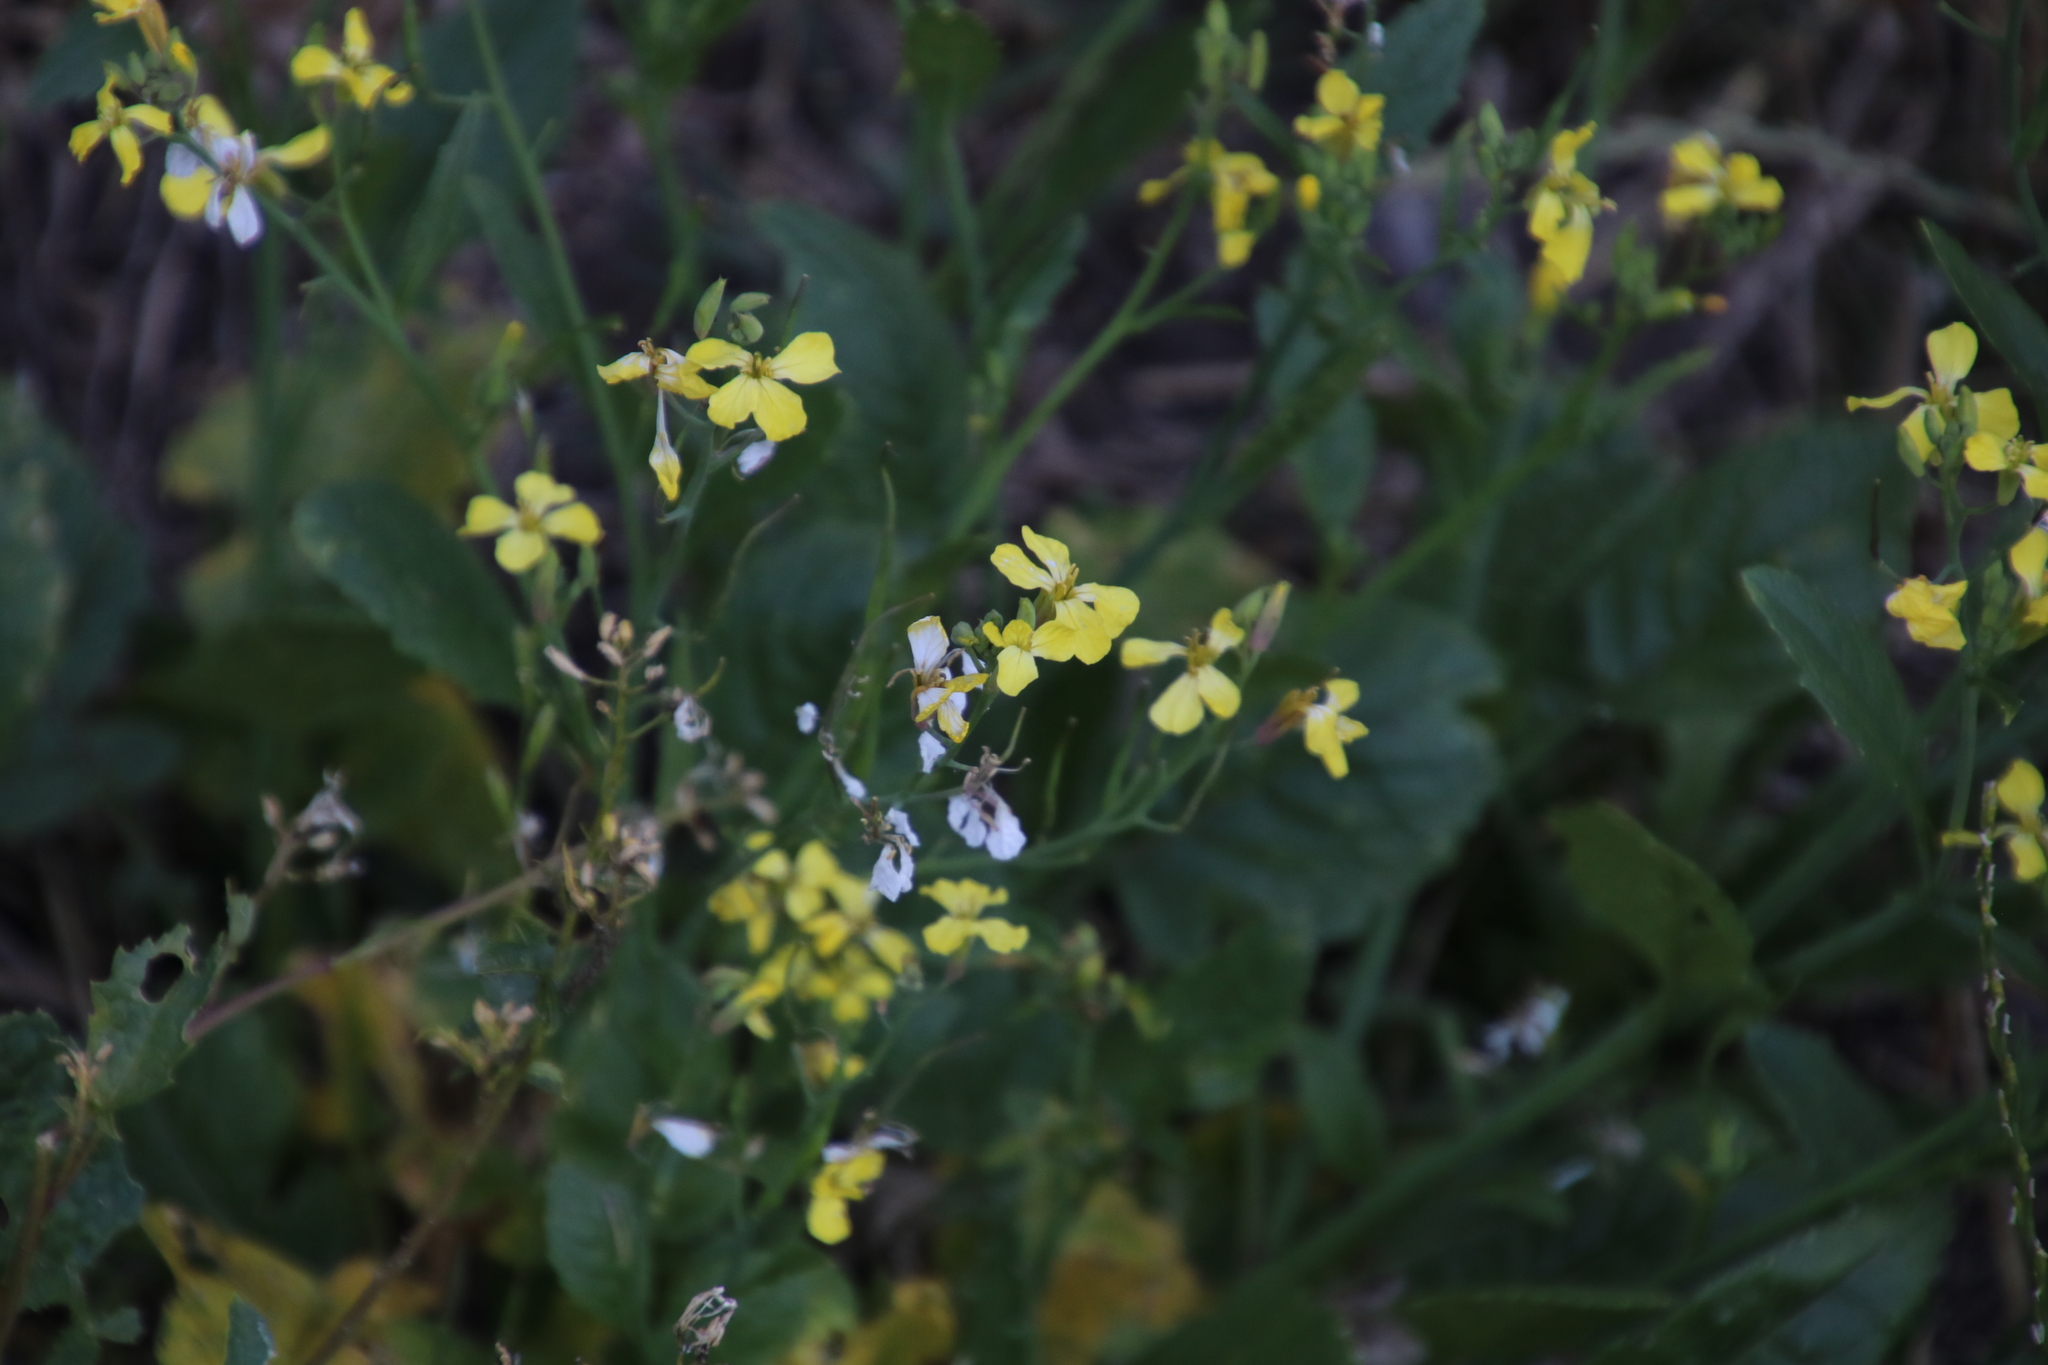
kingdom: Plantae
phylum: Tracheophyta
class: Magnoliopsida
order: Brassicales
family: Brassicaceae
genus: Raphanus
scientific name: Raphanus raphanistrum
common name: Wild radish
